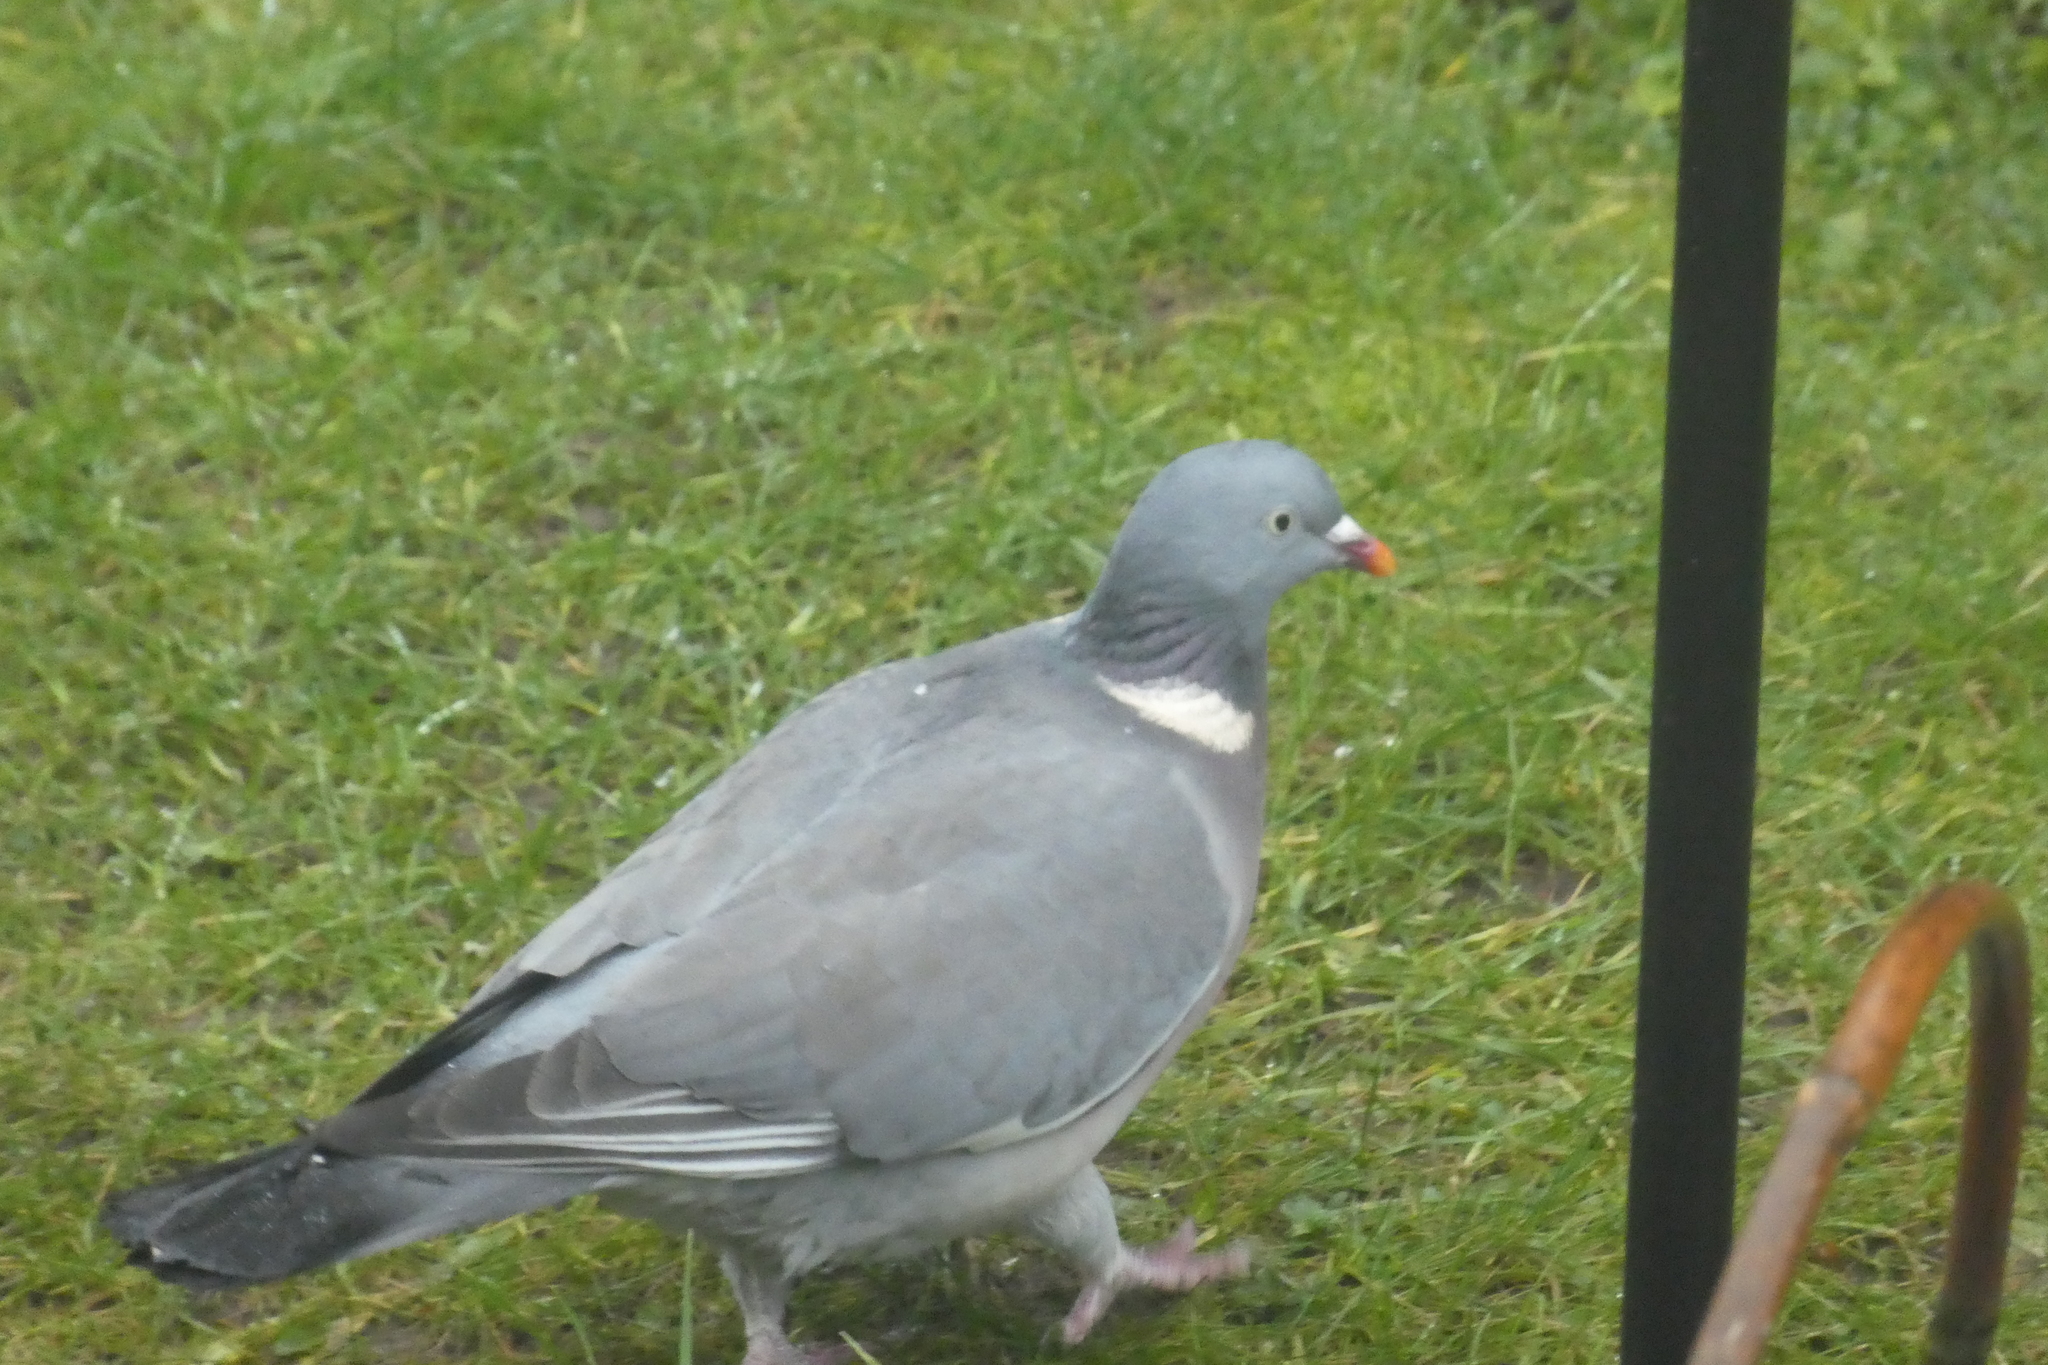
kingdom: Animalia
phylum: Chordata
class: Aves
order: Columbiformes
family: Columbidae
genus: Columba
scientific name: Columba palumbus
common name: Common wood pigeon
